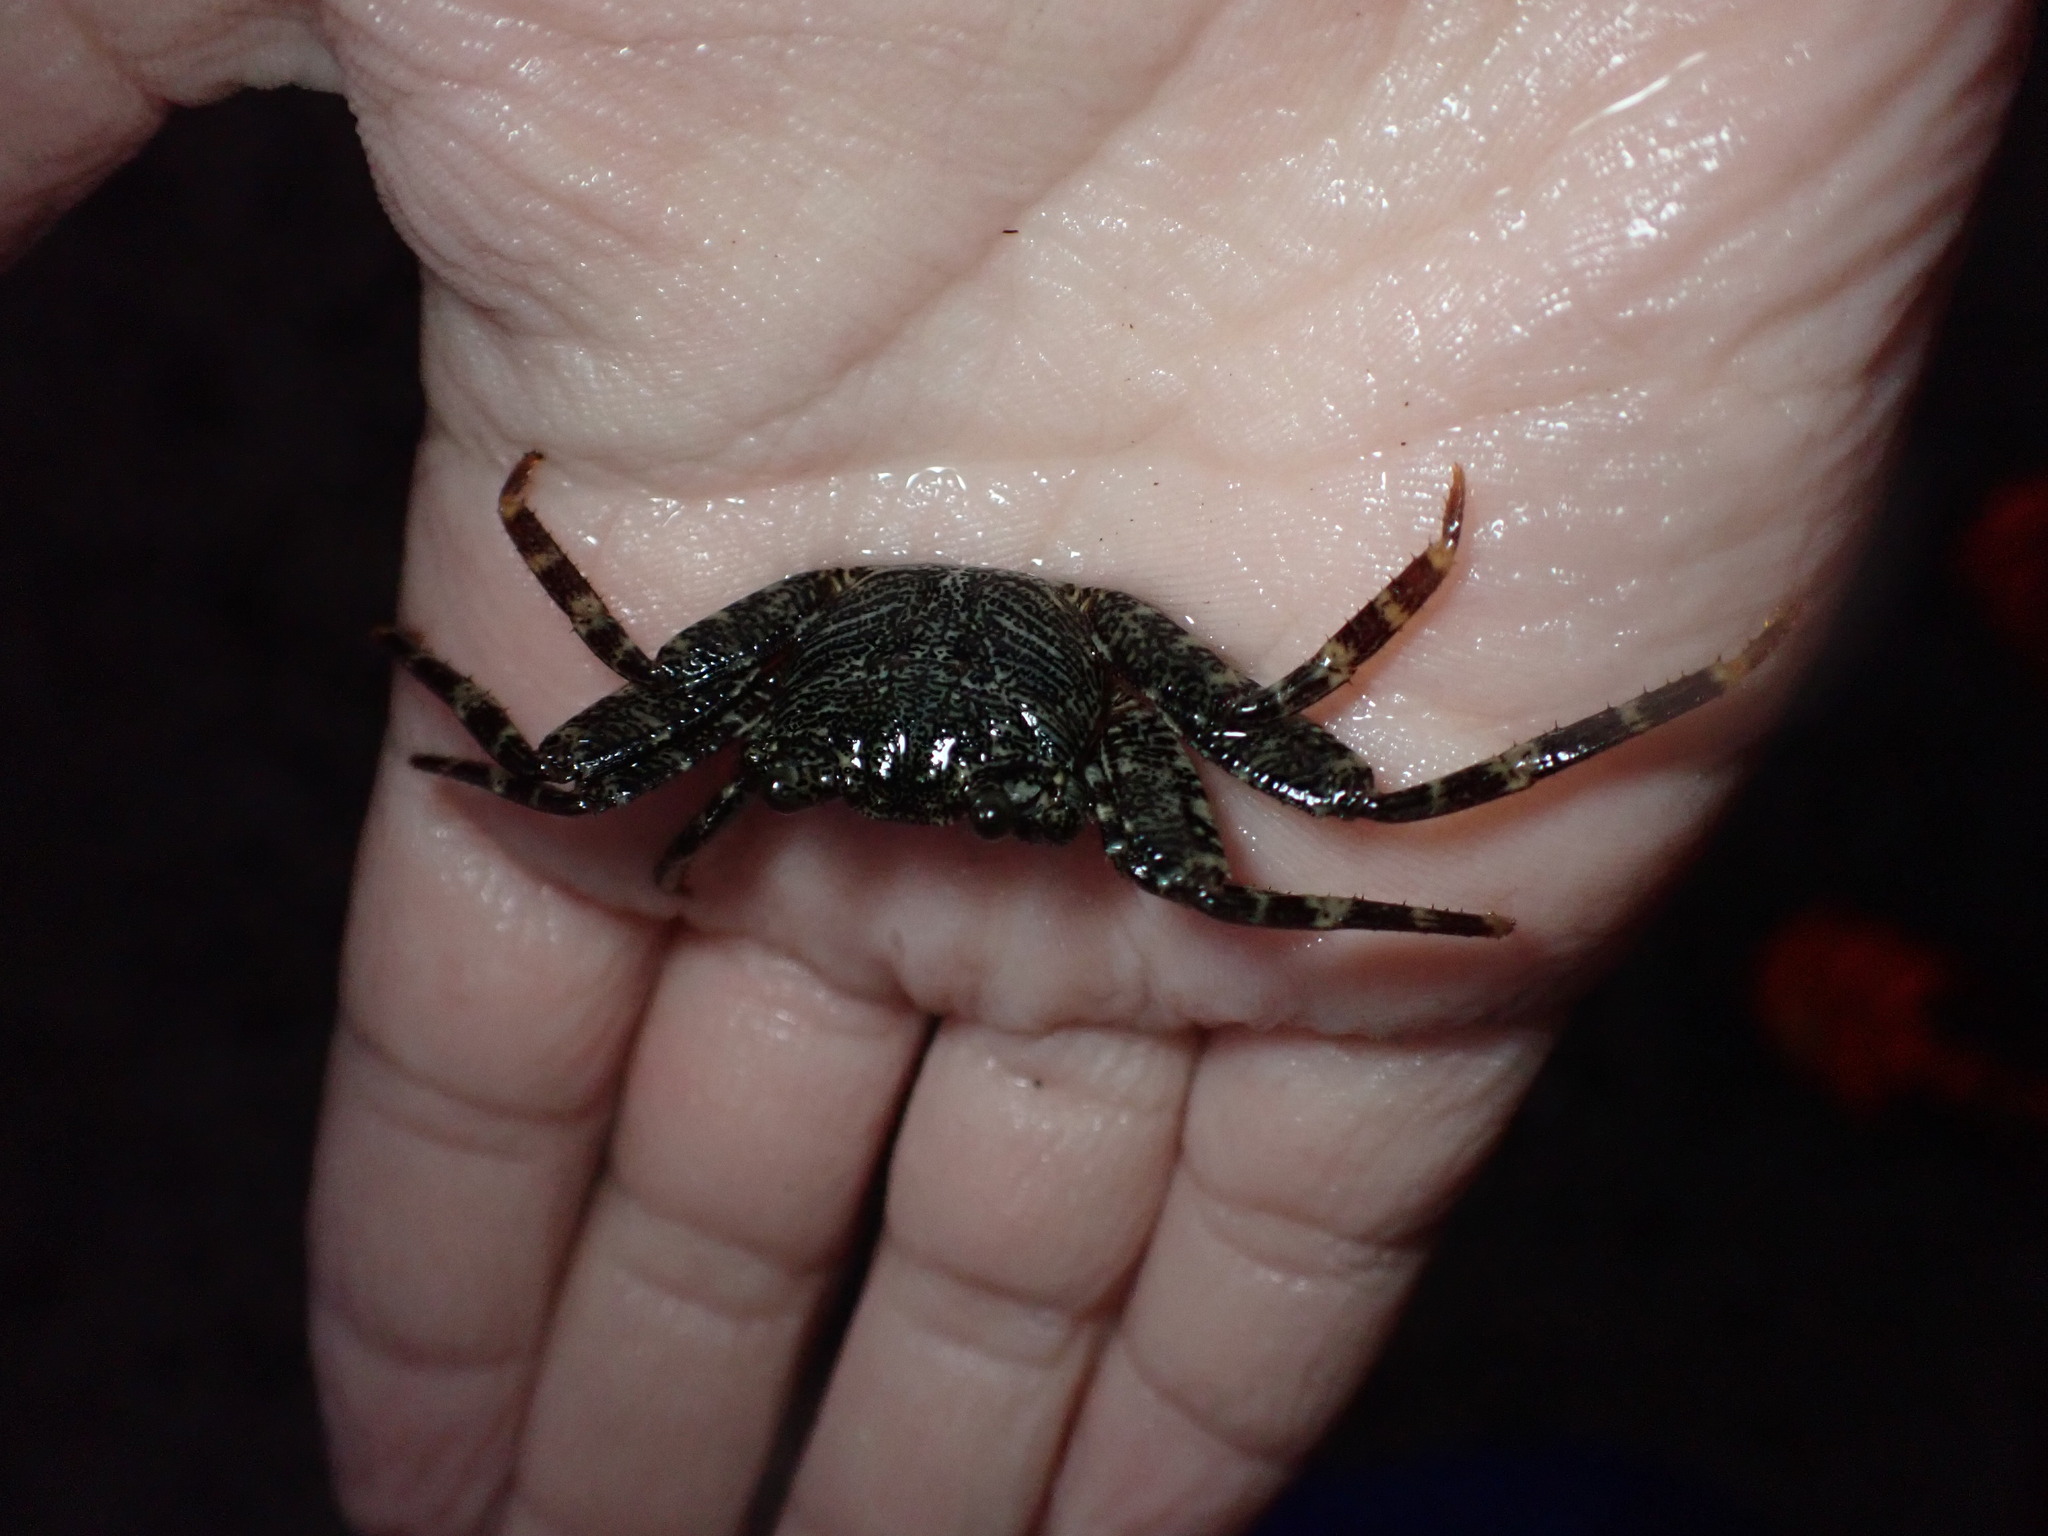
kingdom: Animalia
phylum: Arthropoda
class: Malacostraca
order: Decapoda
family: Grapsidae
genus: Grapsus
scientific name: Grapsus tenuicrustatus
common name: Natal lightfoot crab
